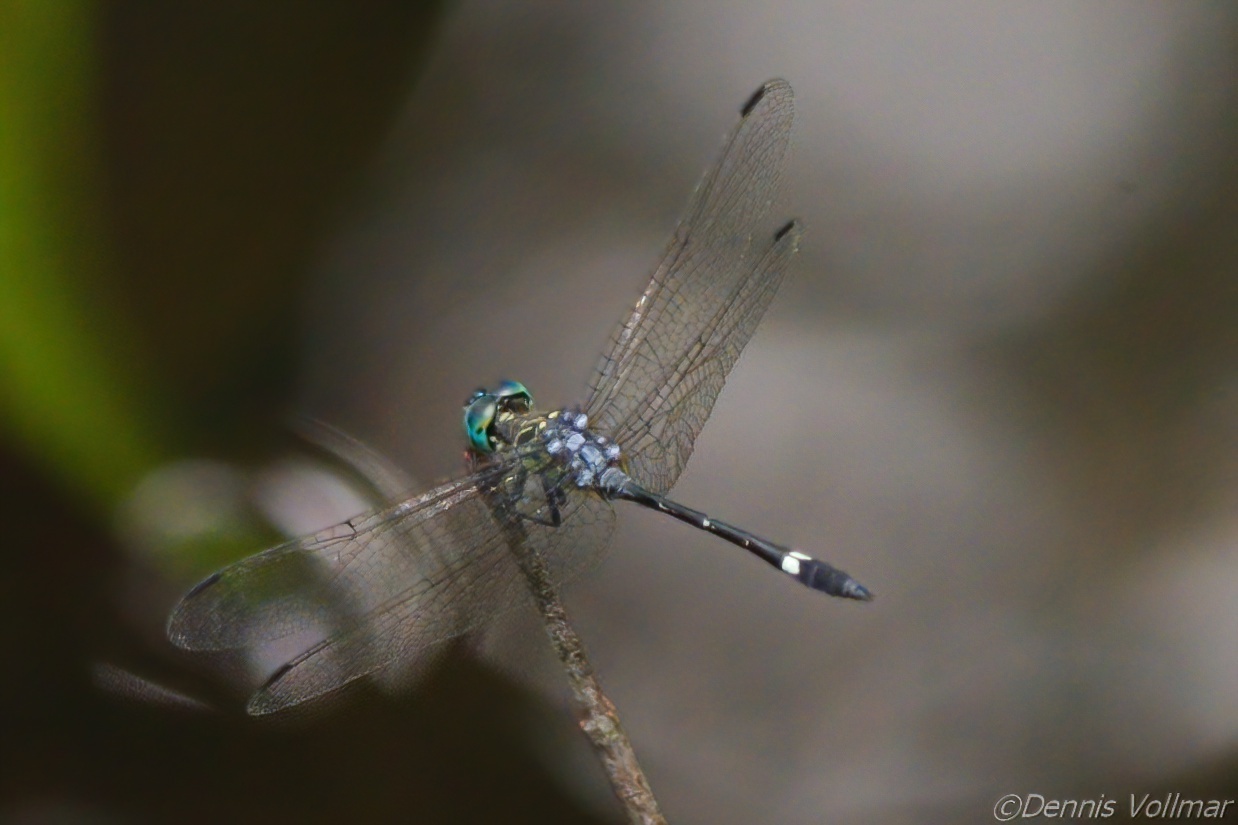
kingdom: Animalia
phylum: Arthropoda
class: Insecta
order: Odonata
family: Libellulidae
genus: Micrathyria
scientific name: Micrathyria didyma
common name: Three-striped dasher
